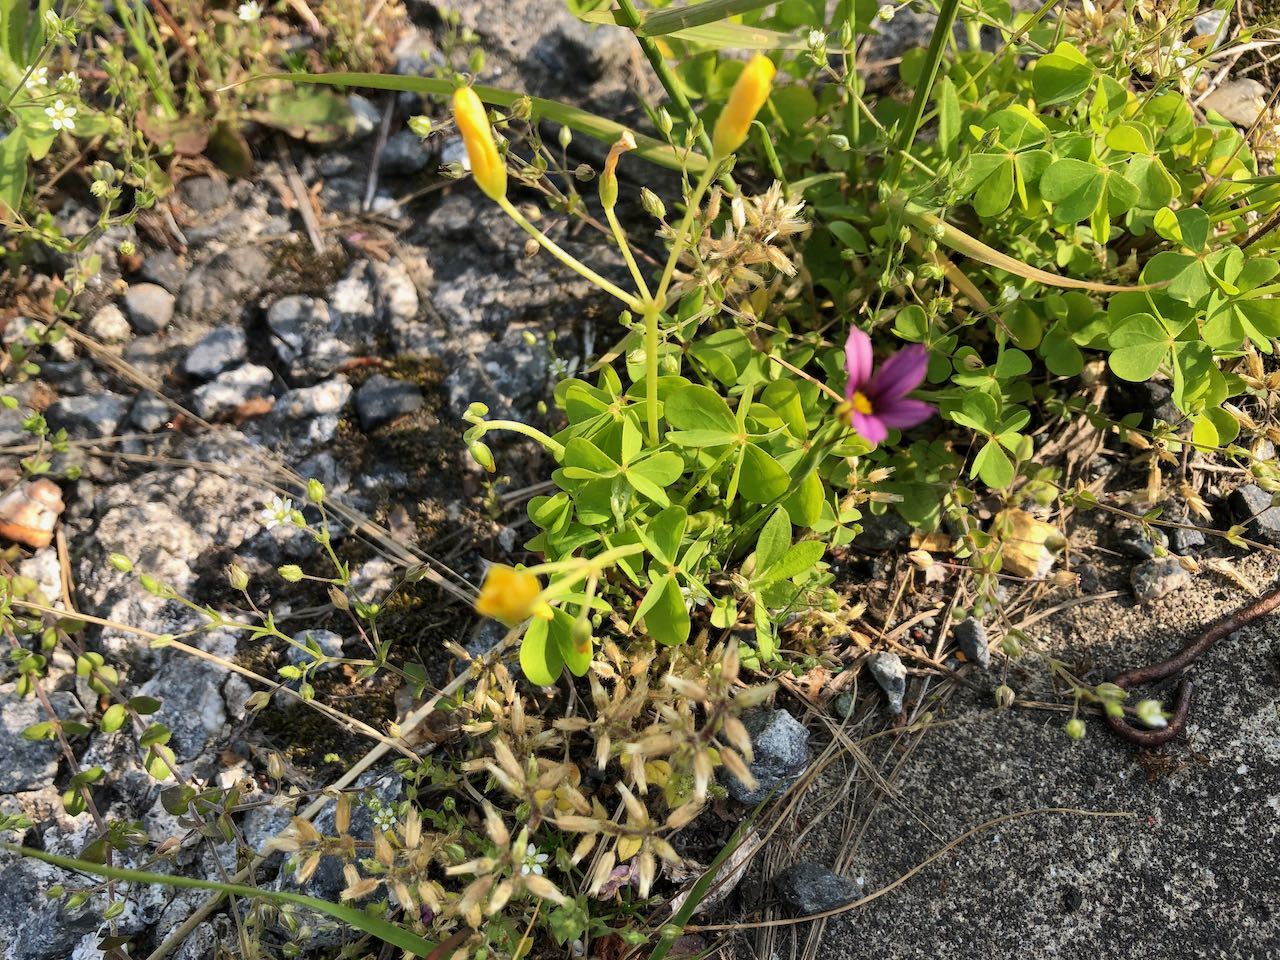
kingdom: Plantae
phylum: Tracheophyta
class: Liliopsida
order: Asparagales
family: Iridaceae
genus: Sisyrinchium
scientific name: Sisyrinchium micranthum
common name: Bermuda pigroot
